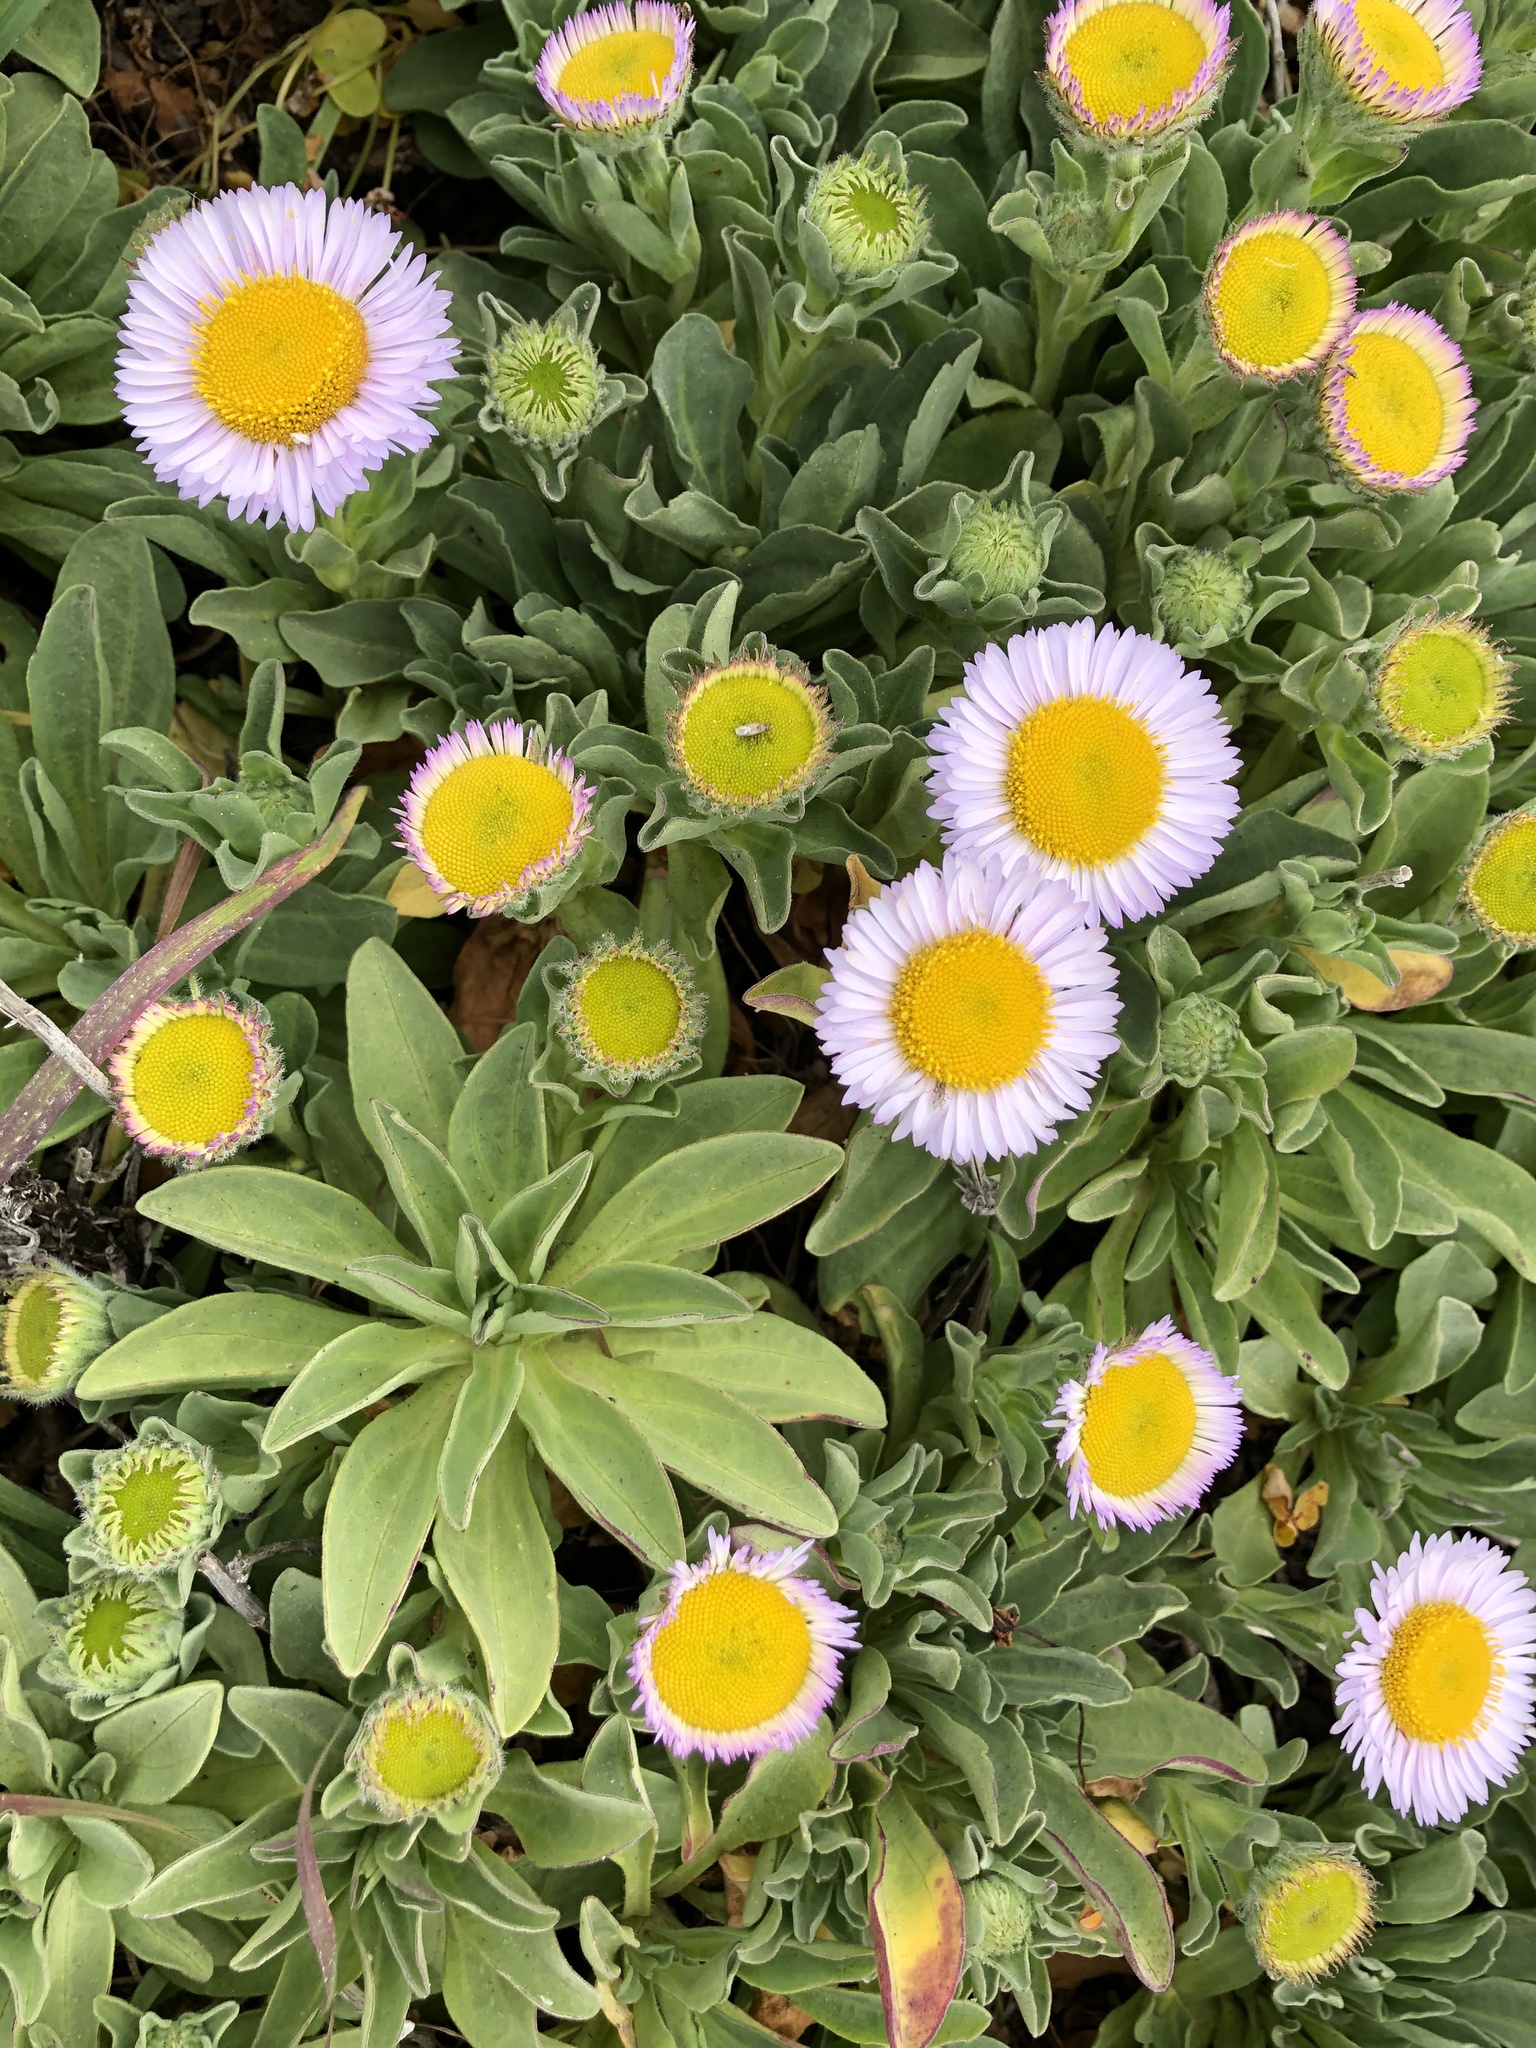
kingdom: Plantae
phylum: Tracheophyta
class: Magnoliopsida
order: Asterales
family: Asteraceae
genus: Erigeron
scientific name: Erigeron glaucus
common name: Seaside daisy
